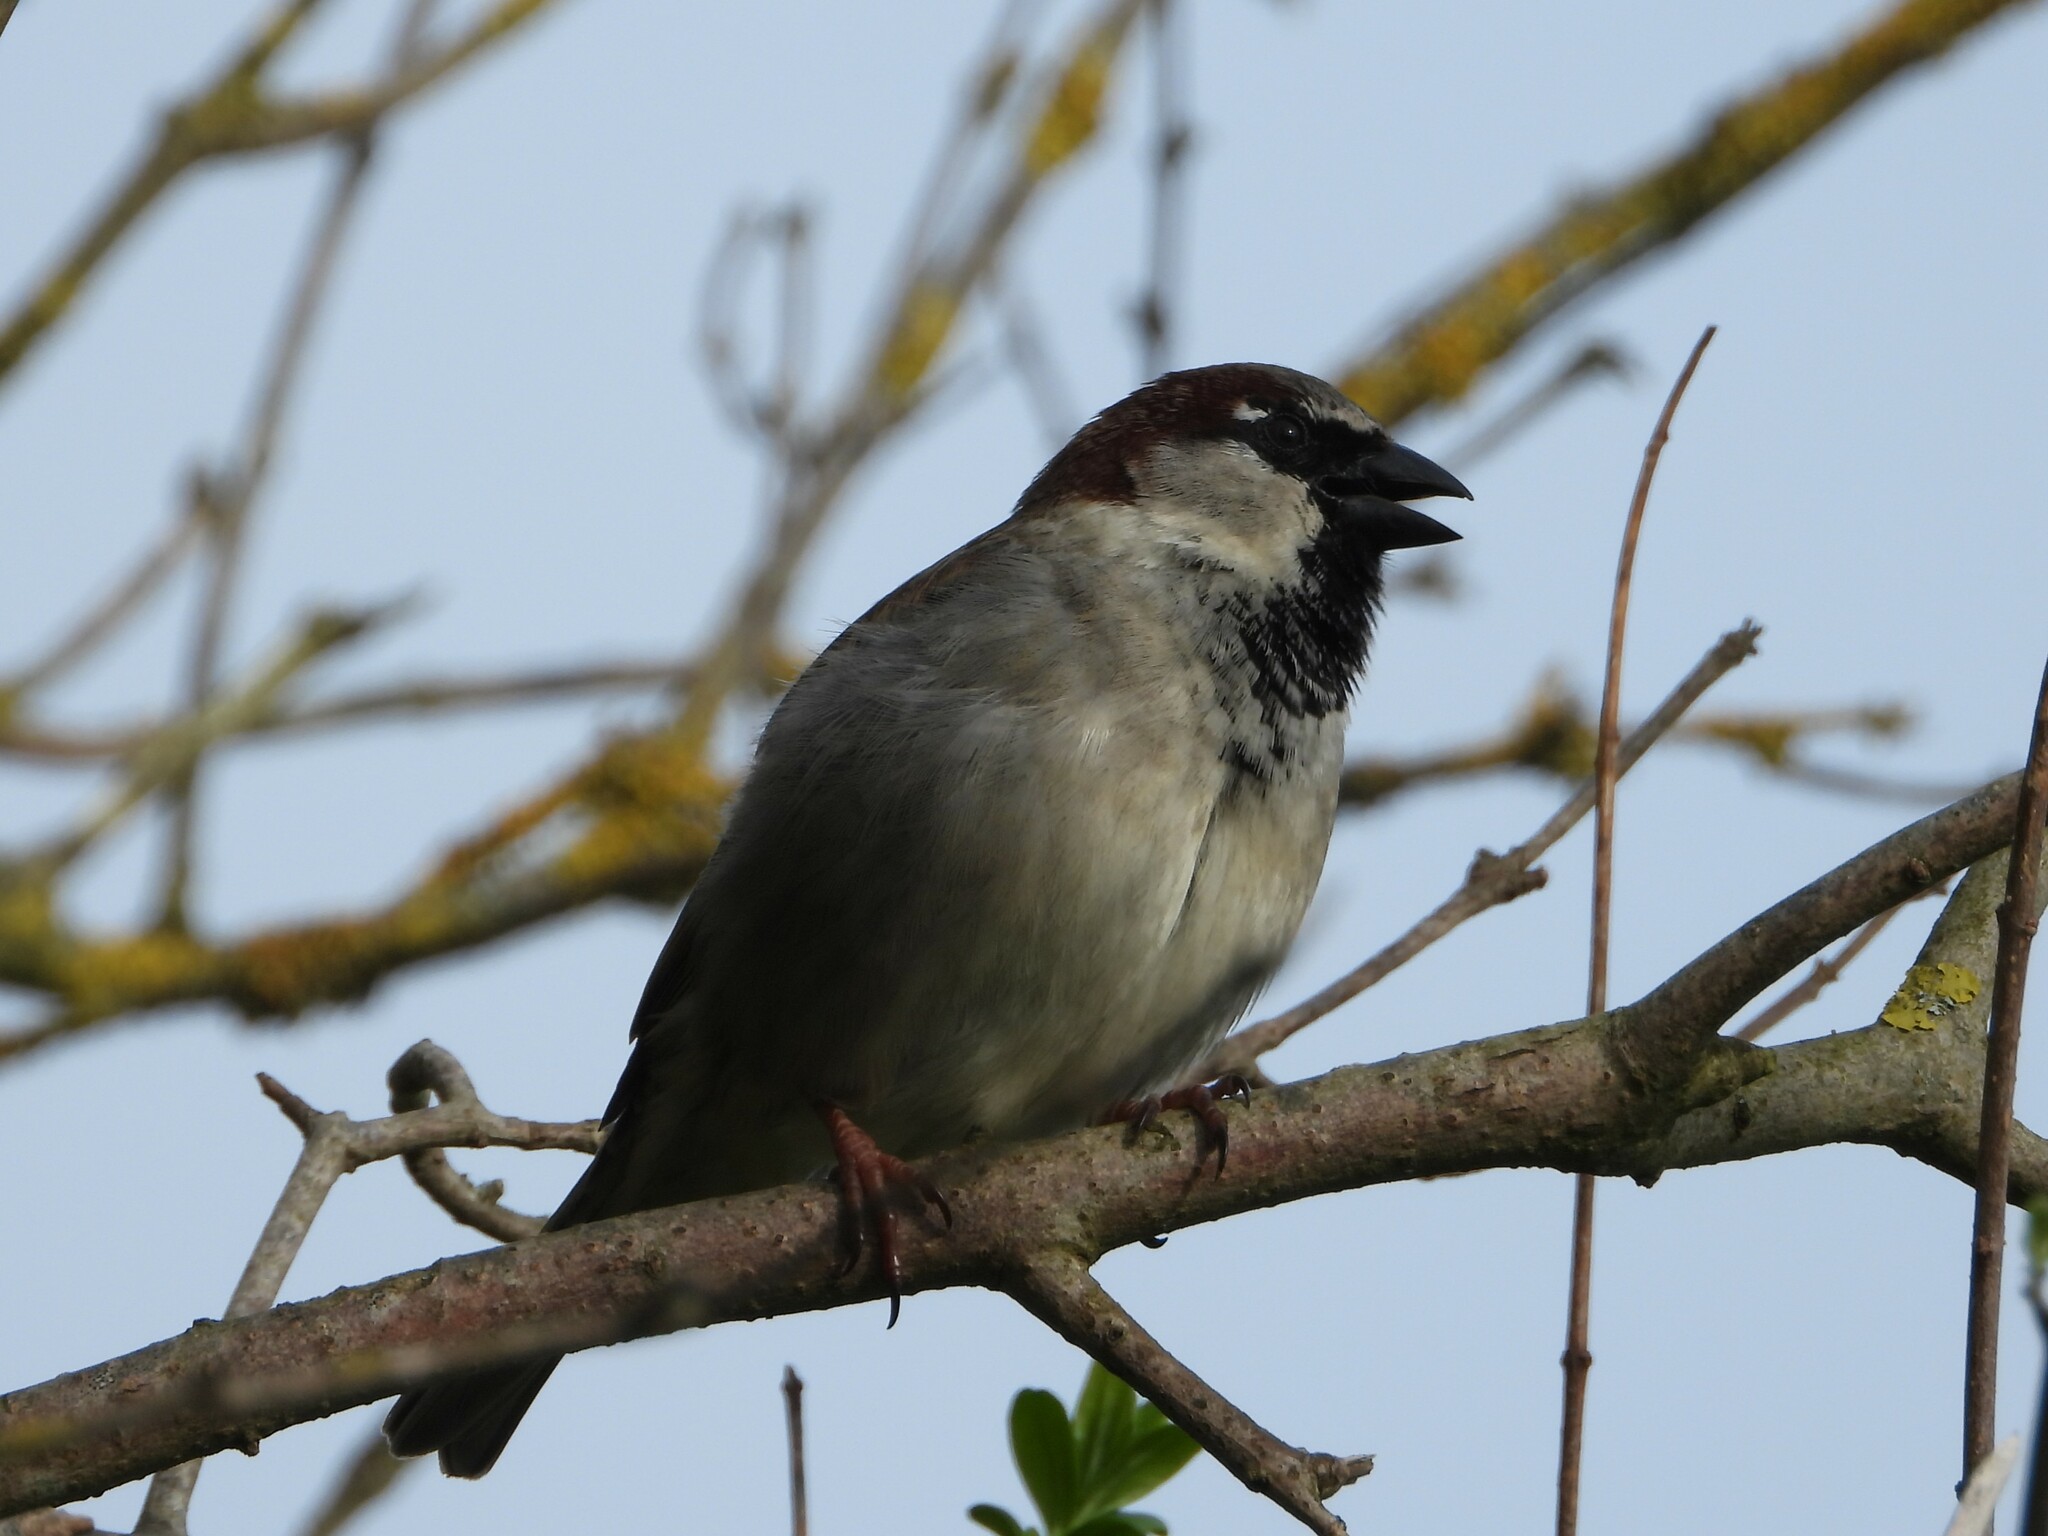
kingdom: Animalia
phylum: Chordata
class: Aves
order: Passeriformes
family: Passeridae
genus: Passer
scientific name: Passer domesticus
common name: House sparrow
